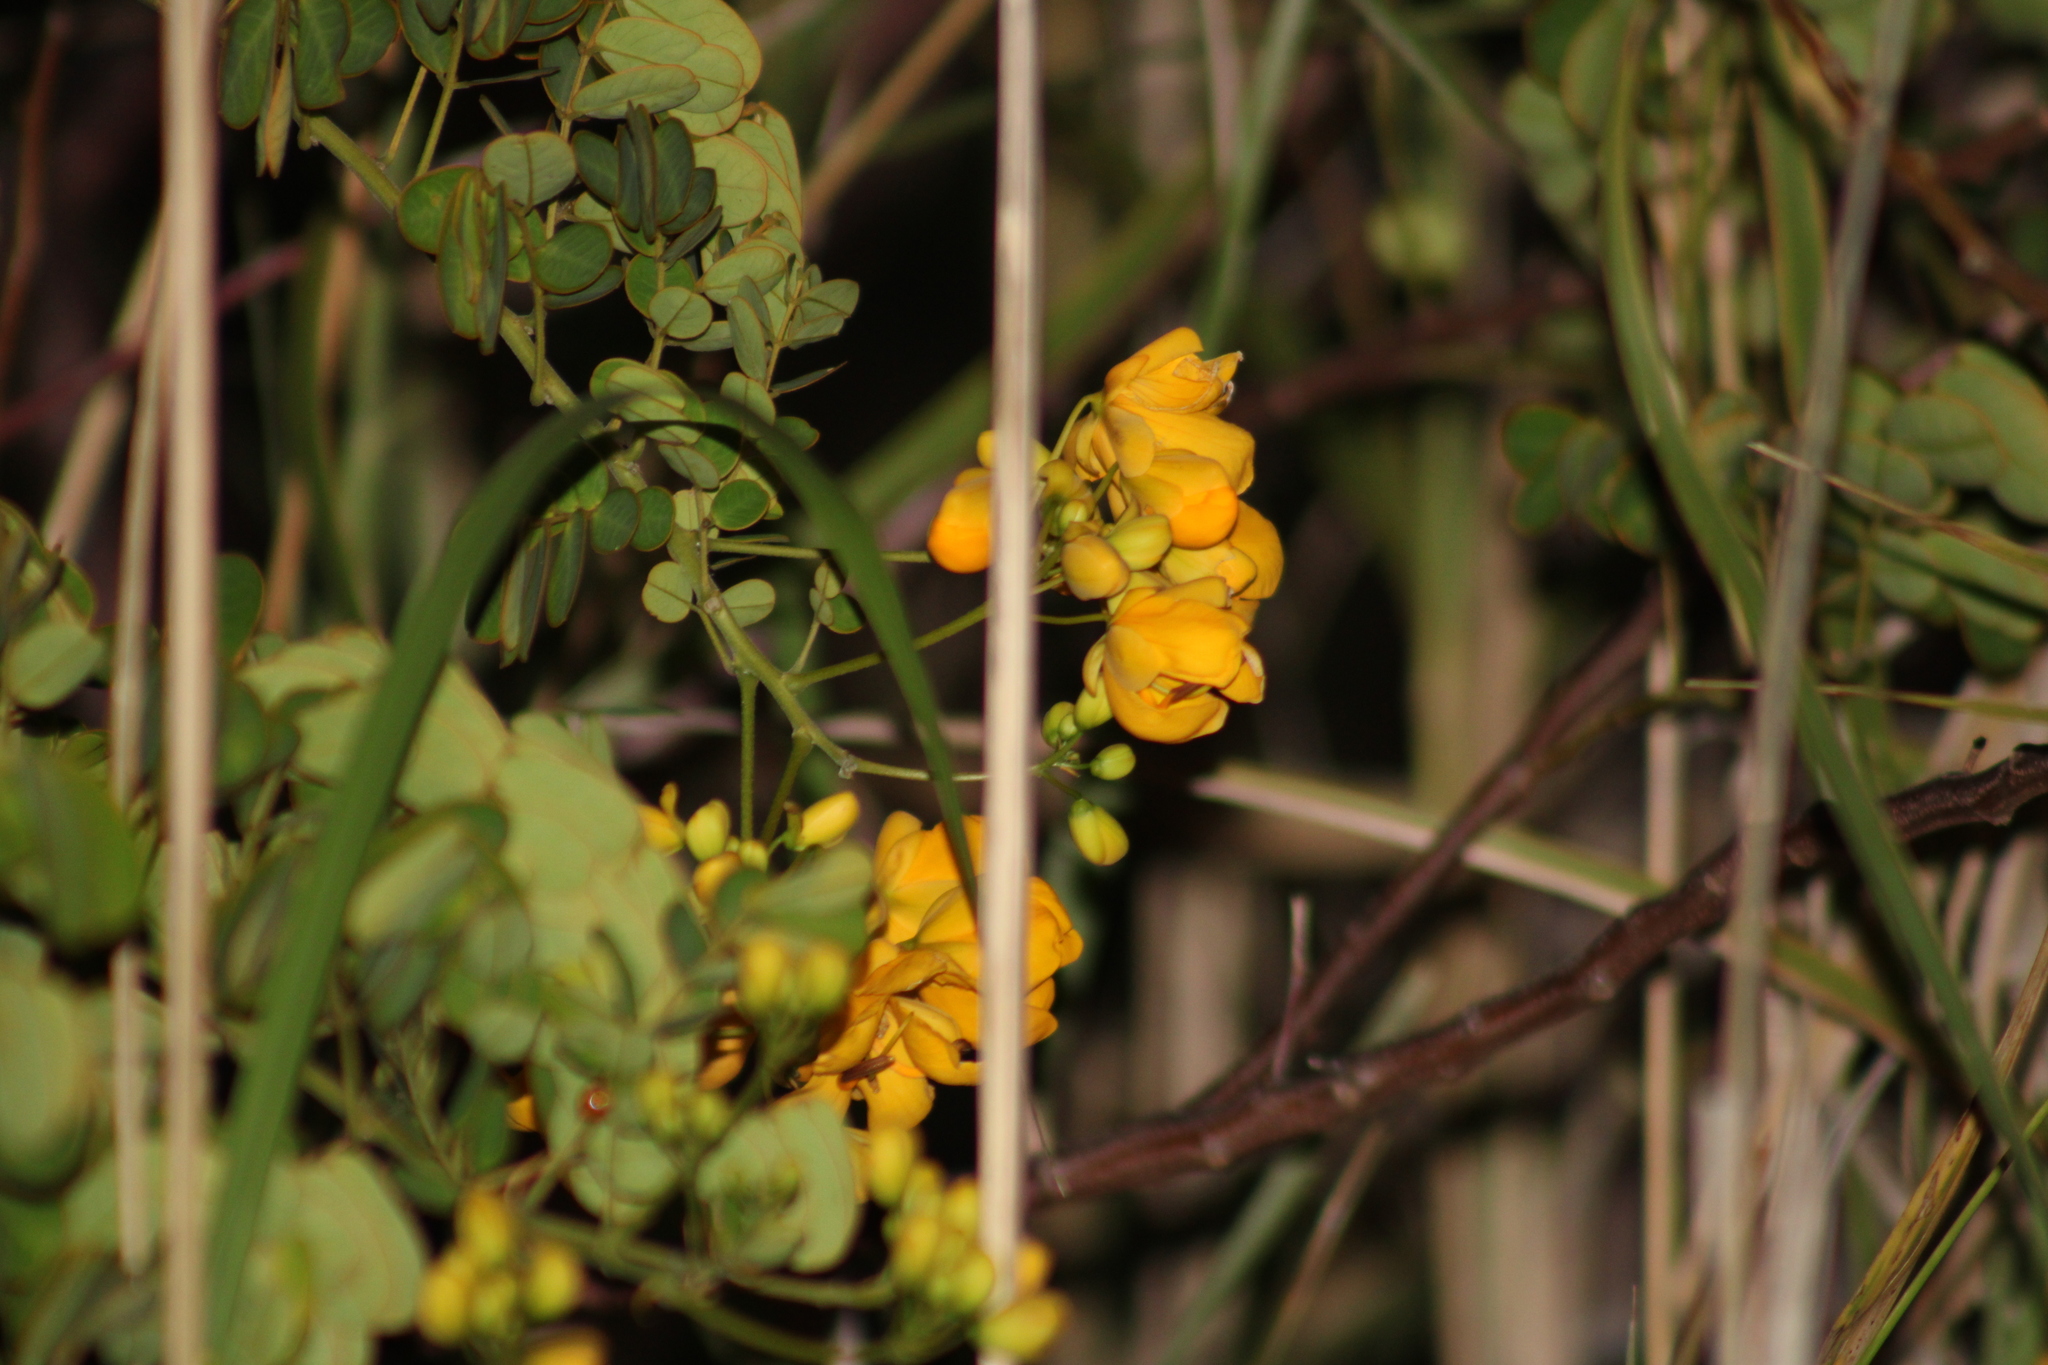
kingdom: Plantae
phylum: Tracheophyta
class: Magnoliopsida
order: Fabales
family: Fabaceae
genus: Senna
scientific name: Senna pendula
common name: Easter cassia
